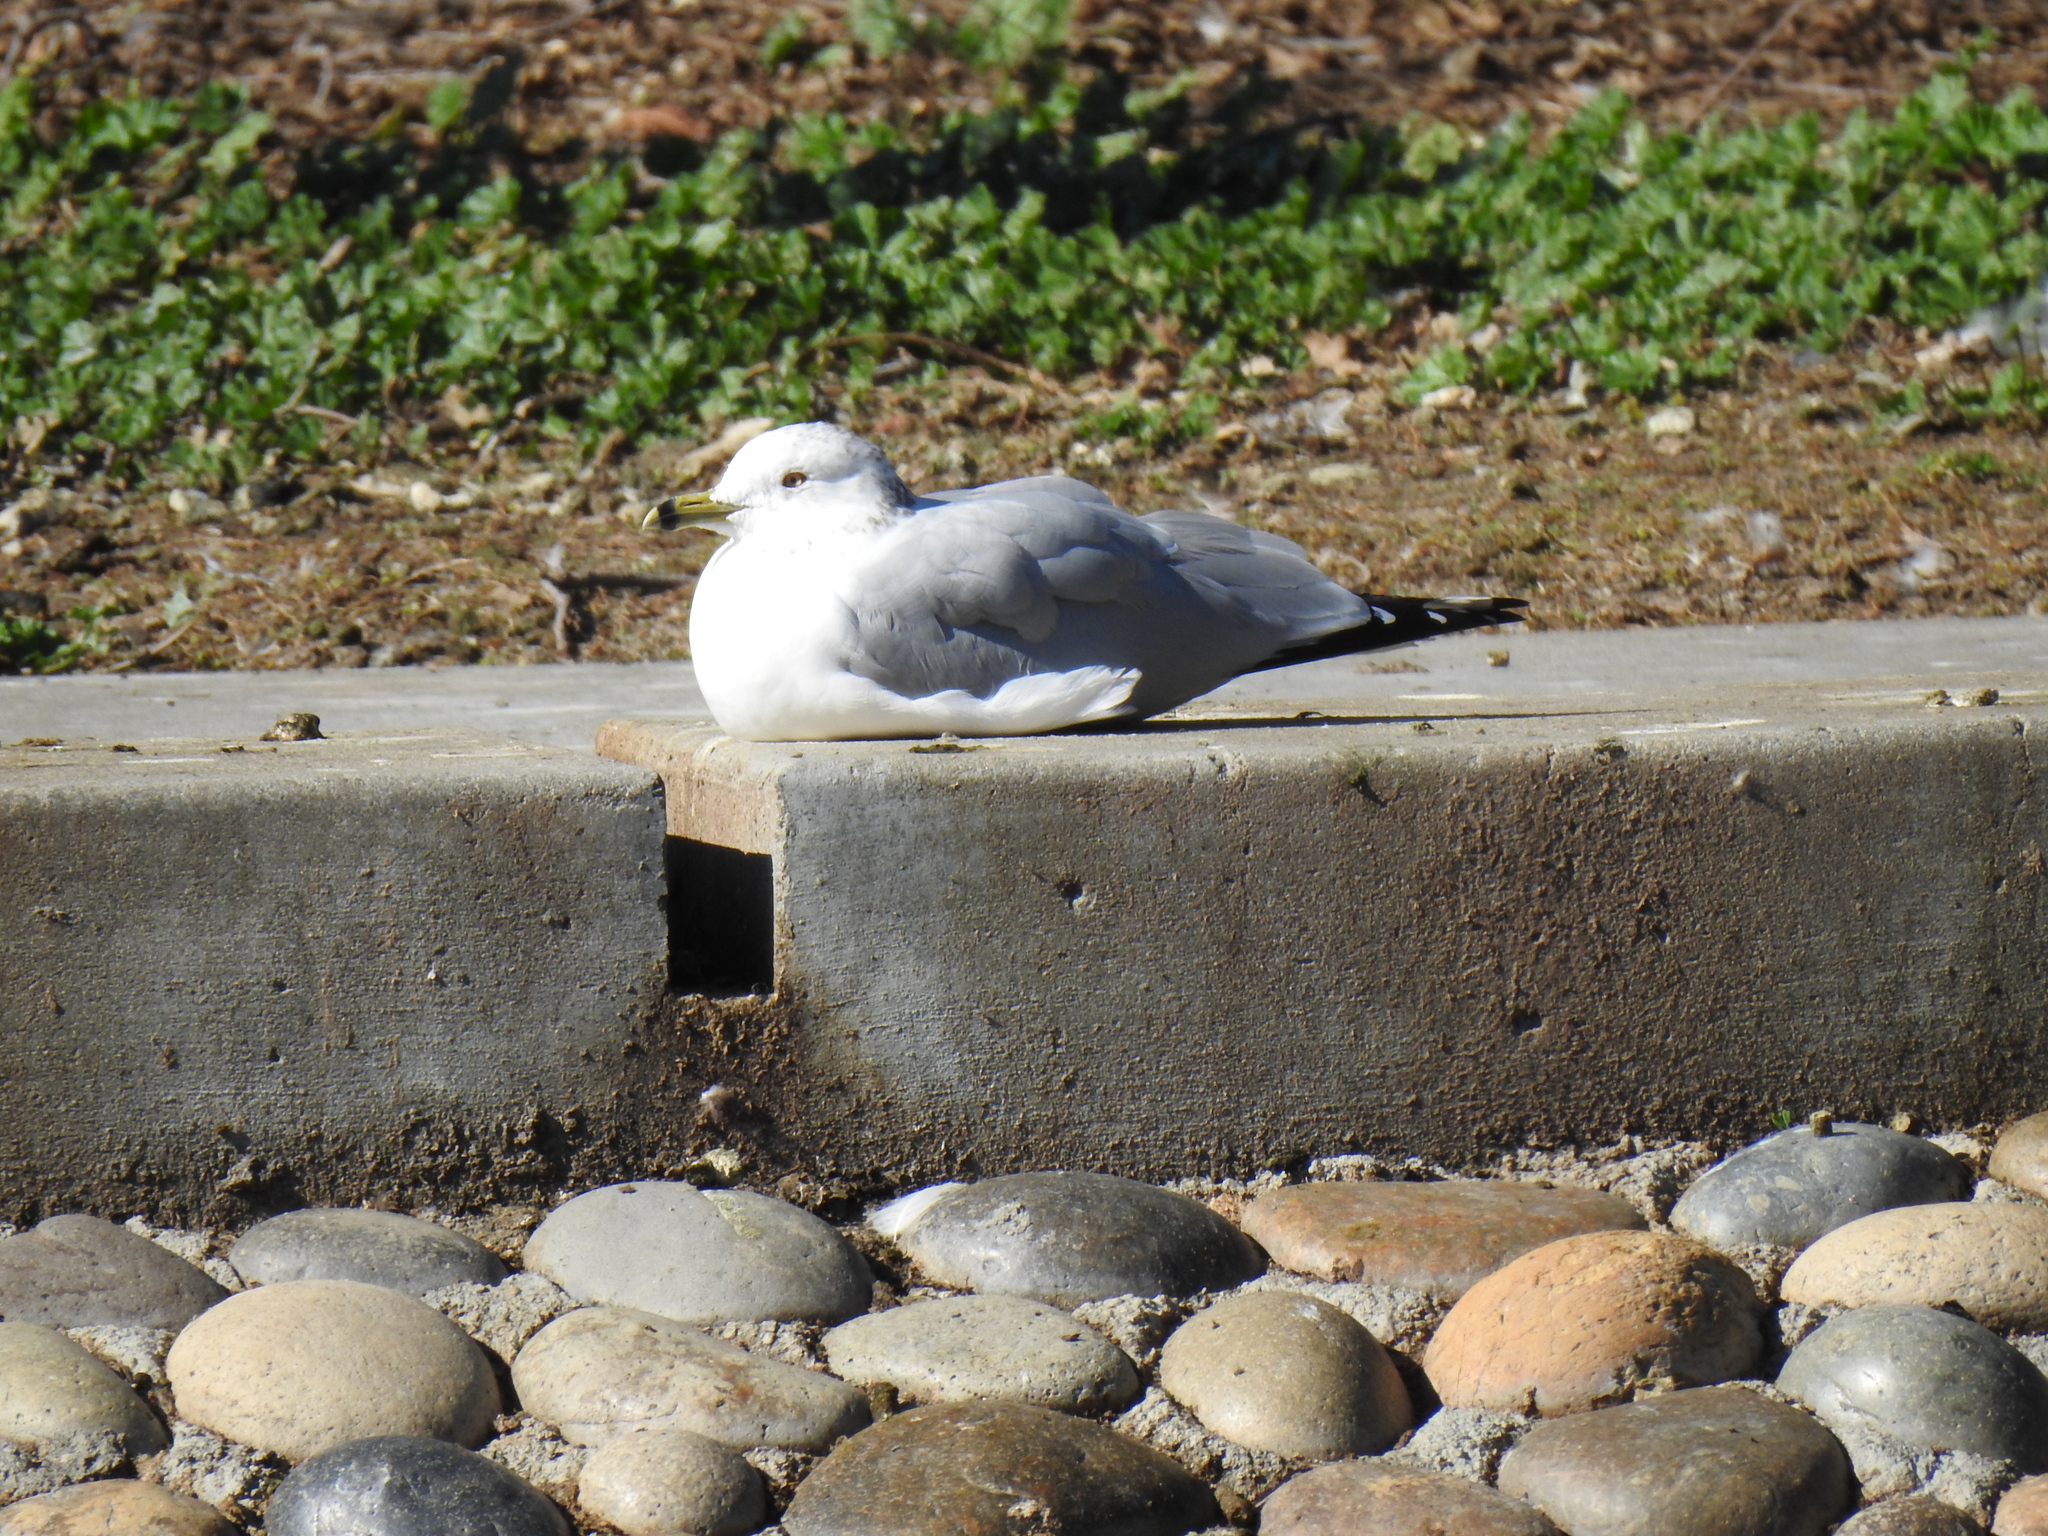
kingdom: Animalia
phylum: Chordata
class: Aves
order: Charadriiformes
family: Laridae
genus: Larus
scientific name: Larus delawarensis
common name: Ring-billed gull
